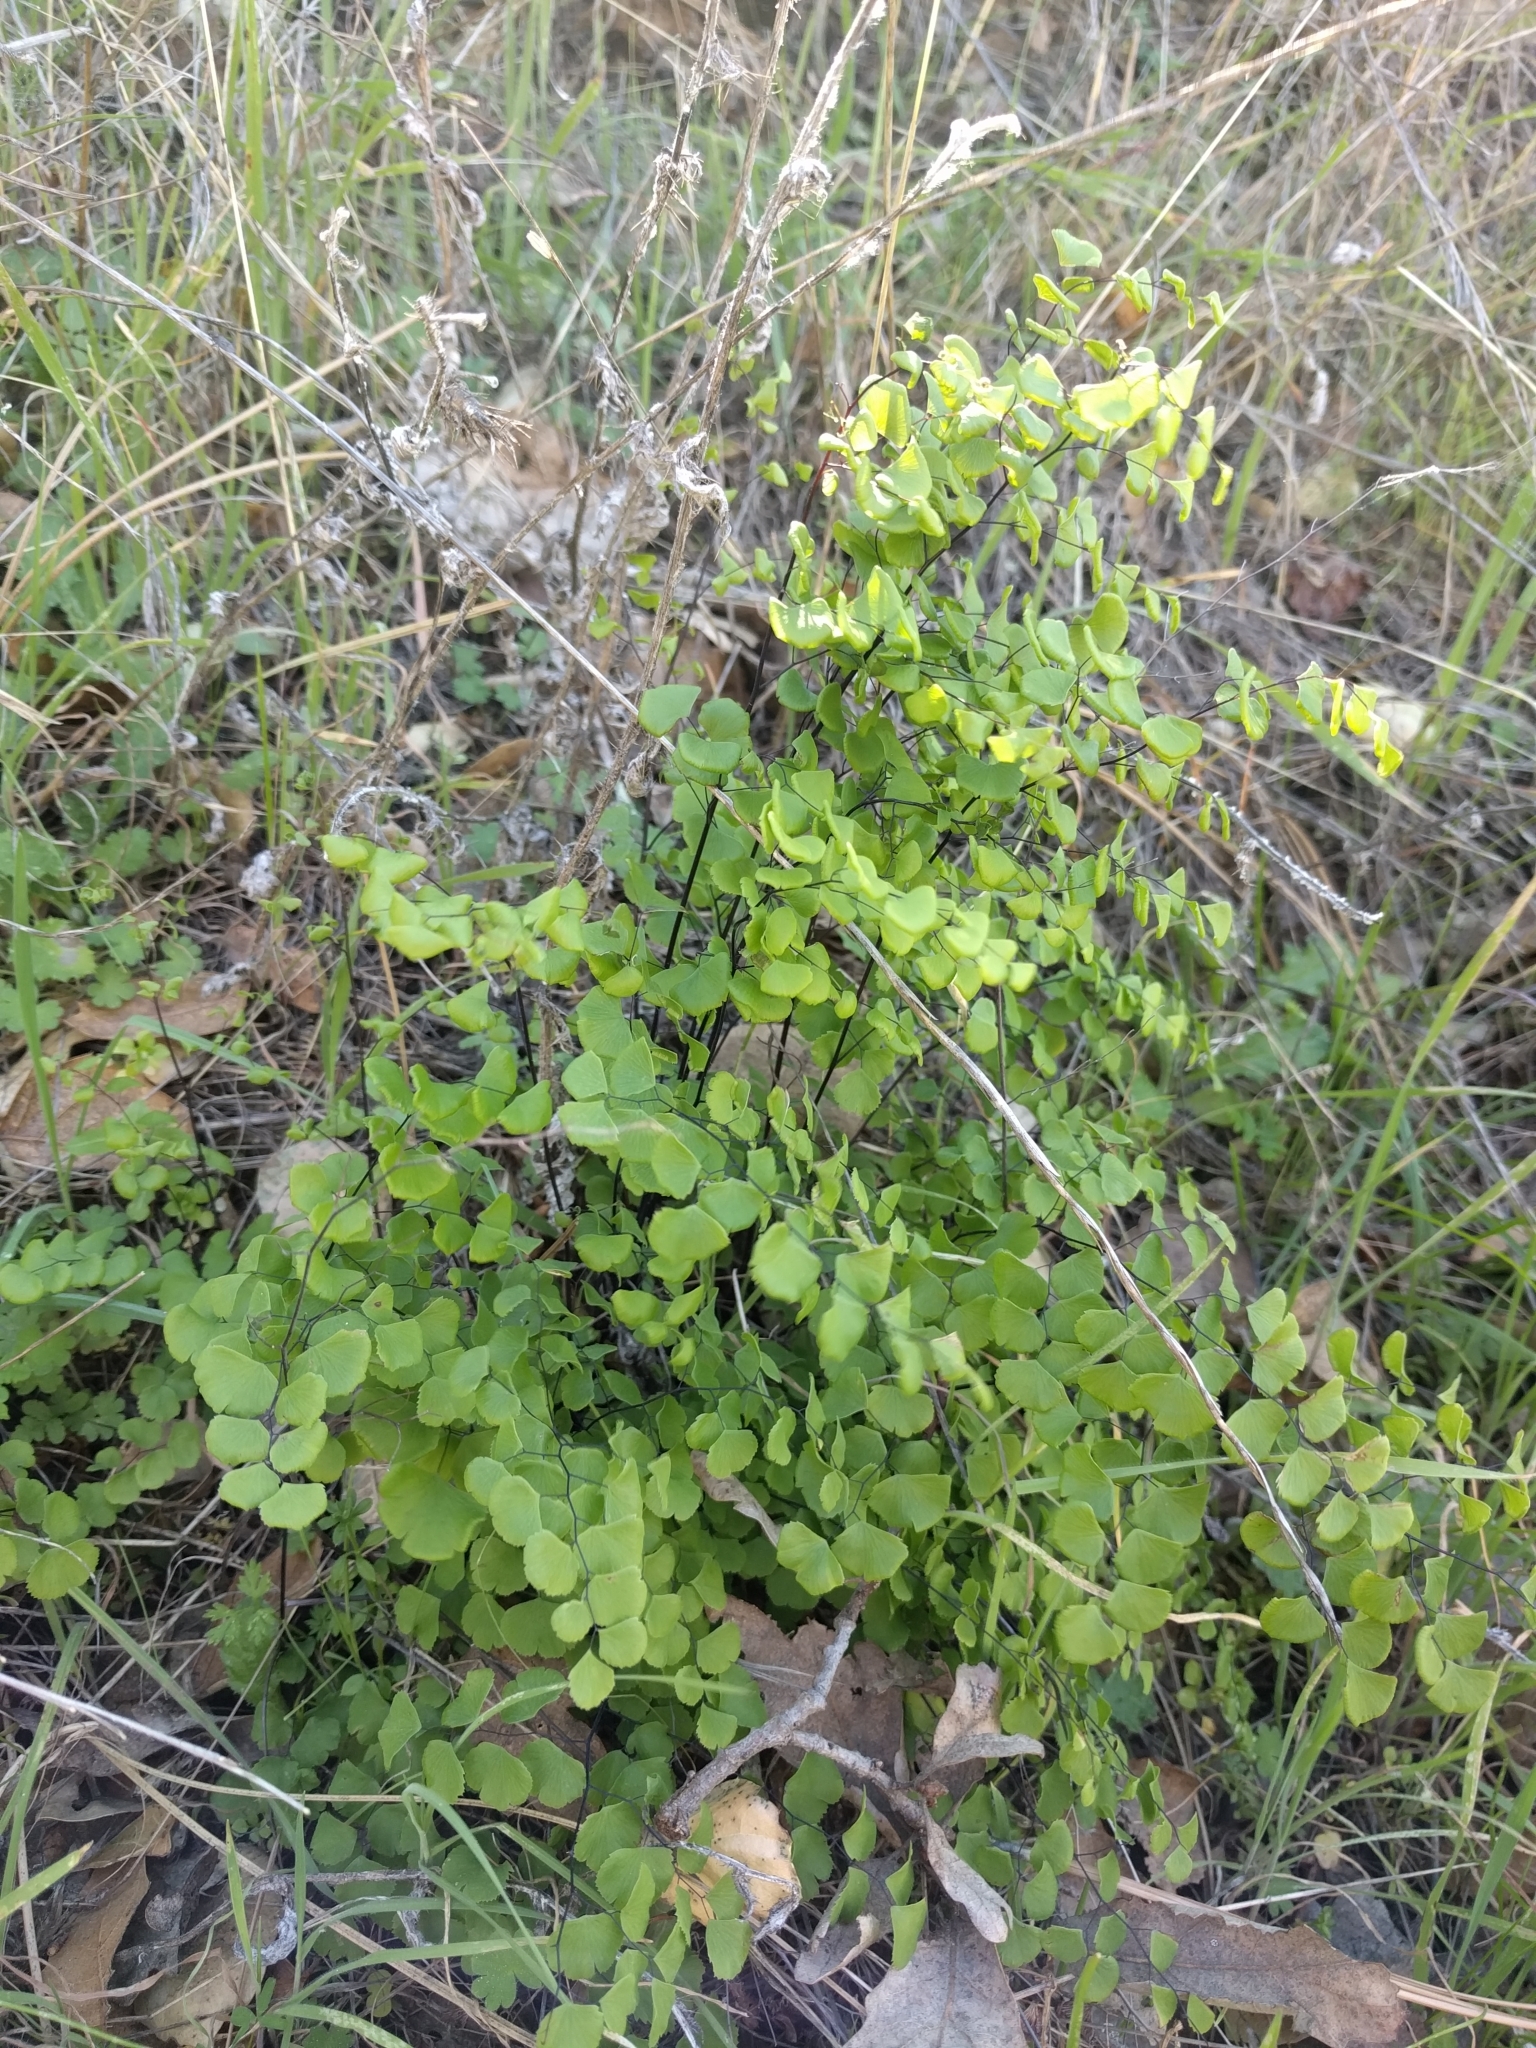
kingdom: Plantae
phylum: Tracheophyta
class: Polypodiopsida
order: Polypodiales
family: Pteridaceae
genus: Adiantum
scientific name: Adiantum jordanii
